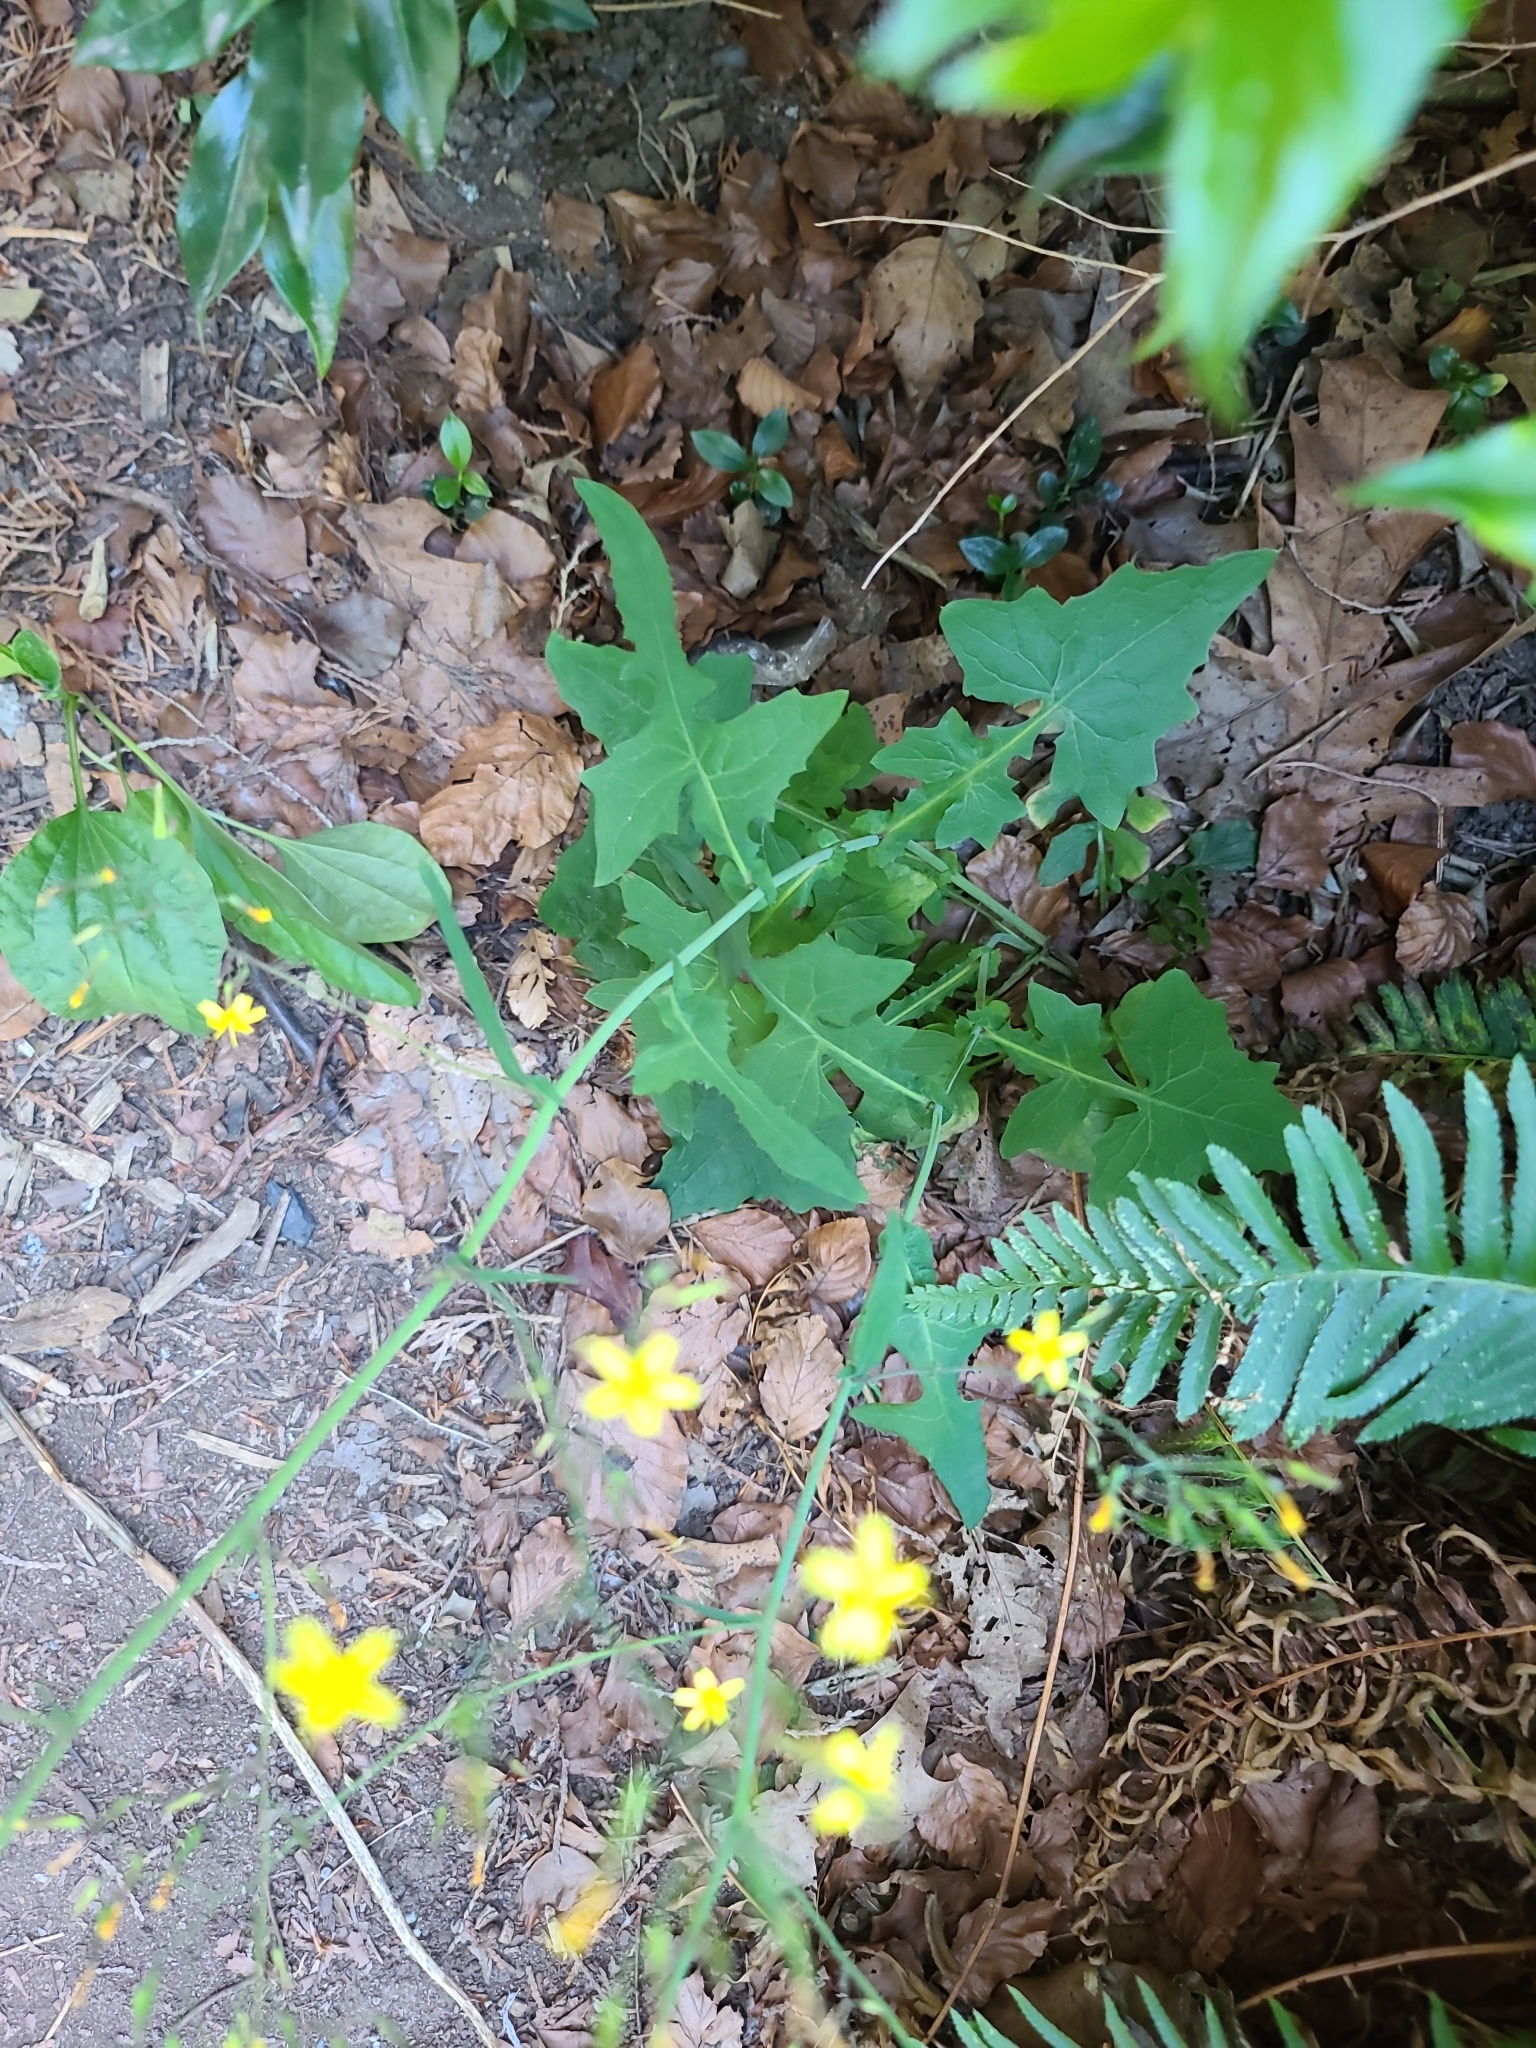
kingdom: Plantae
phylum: Tracheophyta
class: Magnoliopsida
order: Asterales
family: Asteraceae
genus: Mycelis
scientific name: Mycelis muralis
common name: Wall lettuce
